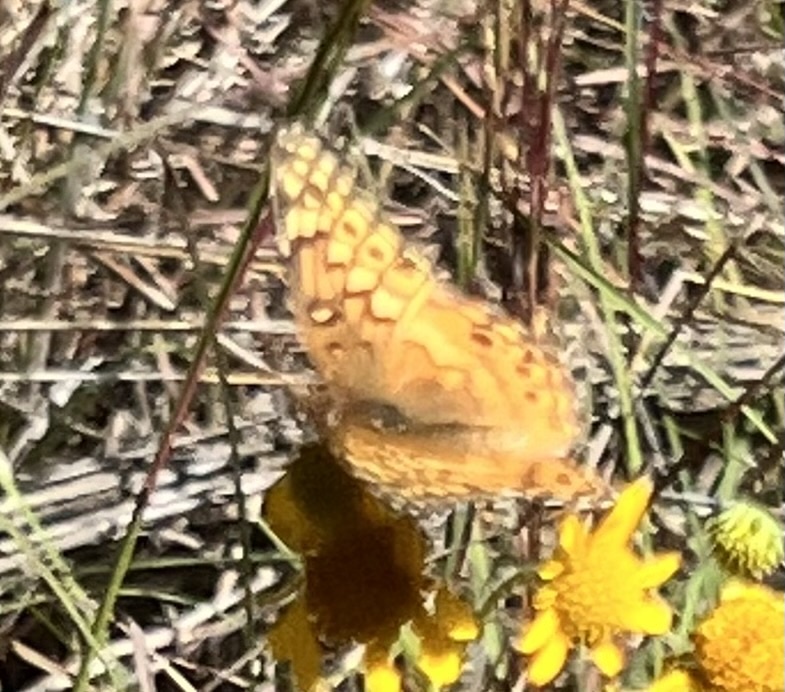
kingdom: Animalia
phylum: Arthropoda
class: Insecta
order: Lepidoptera
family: Nymphalidae
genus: Euptoieta
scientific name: Euptoieta claudia
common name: Variegated fritillary
